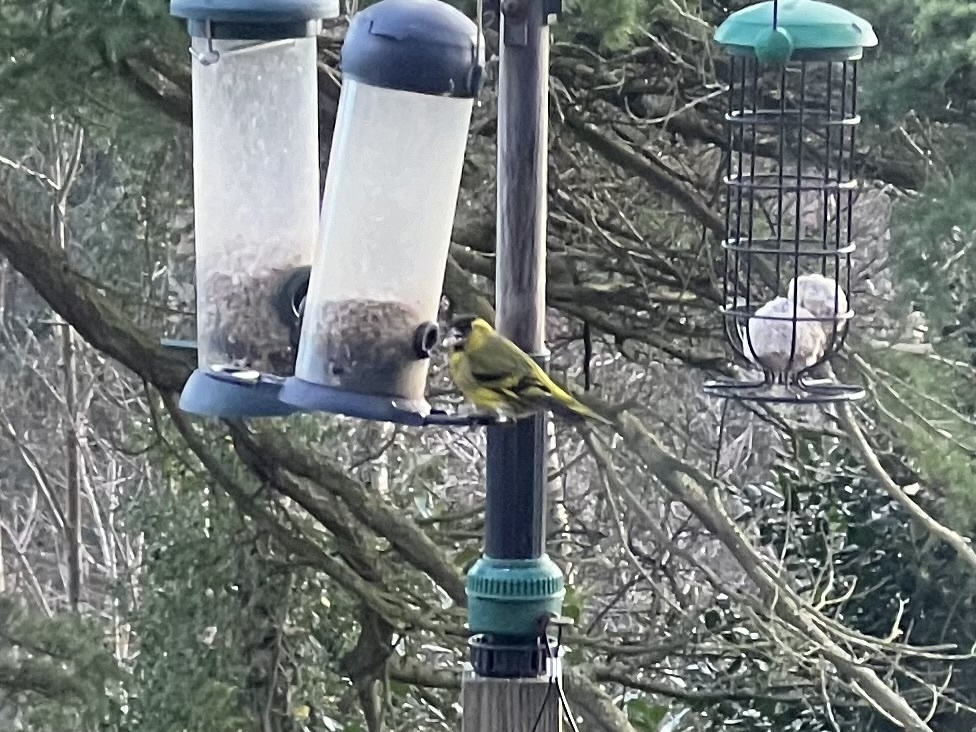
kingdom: Animalia
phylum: Chordata
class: Aves
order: Passeriformes
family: Fringillidae
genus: Spinus
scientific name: Spinus spinus
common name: Eurasian siskin
